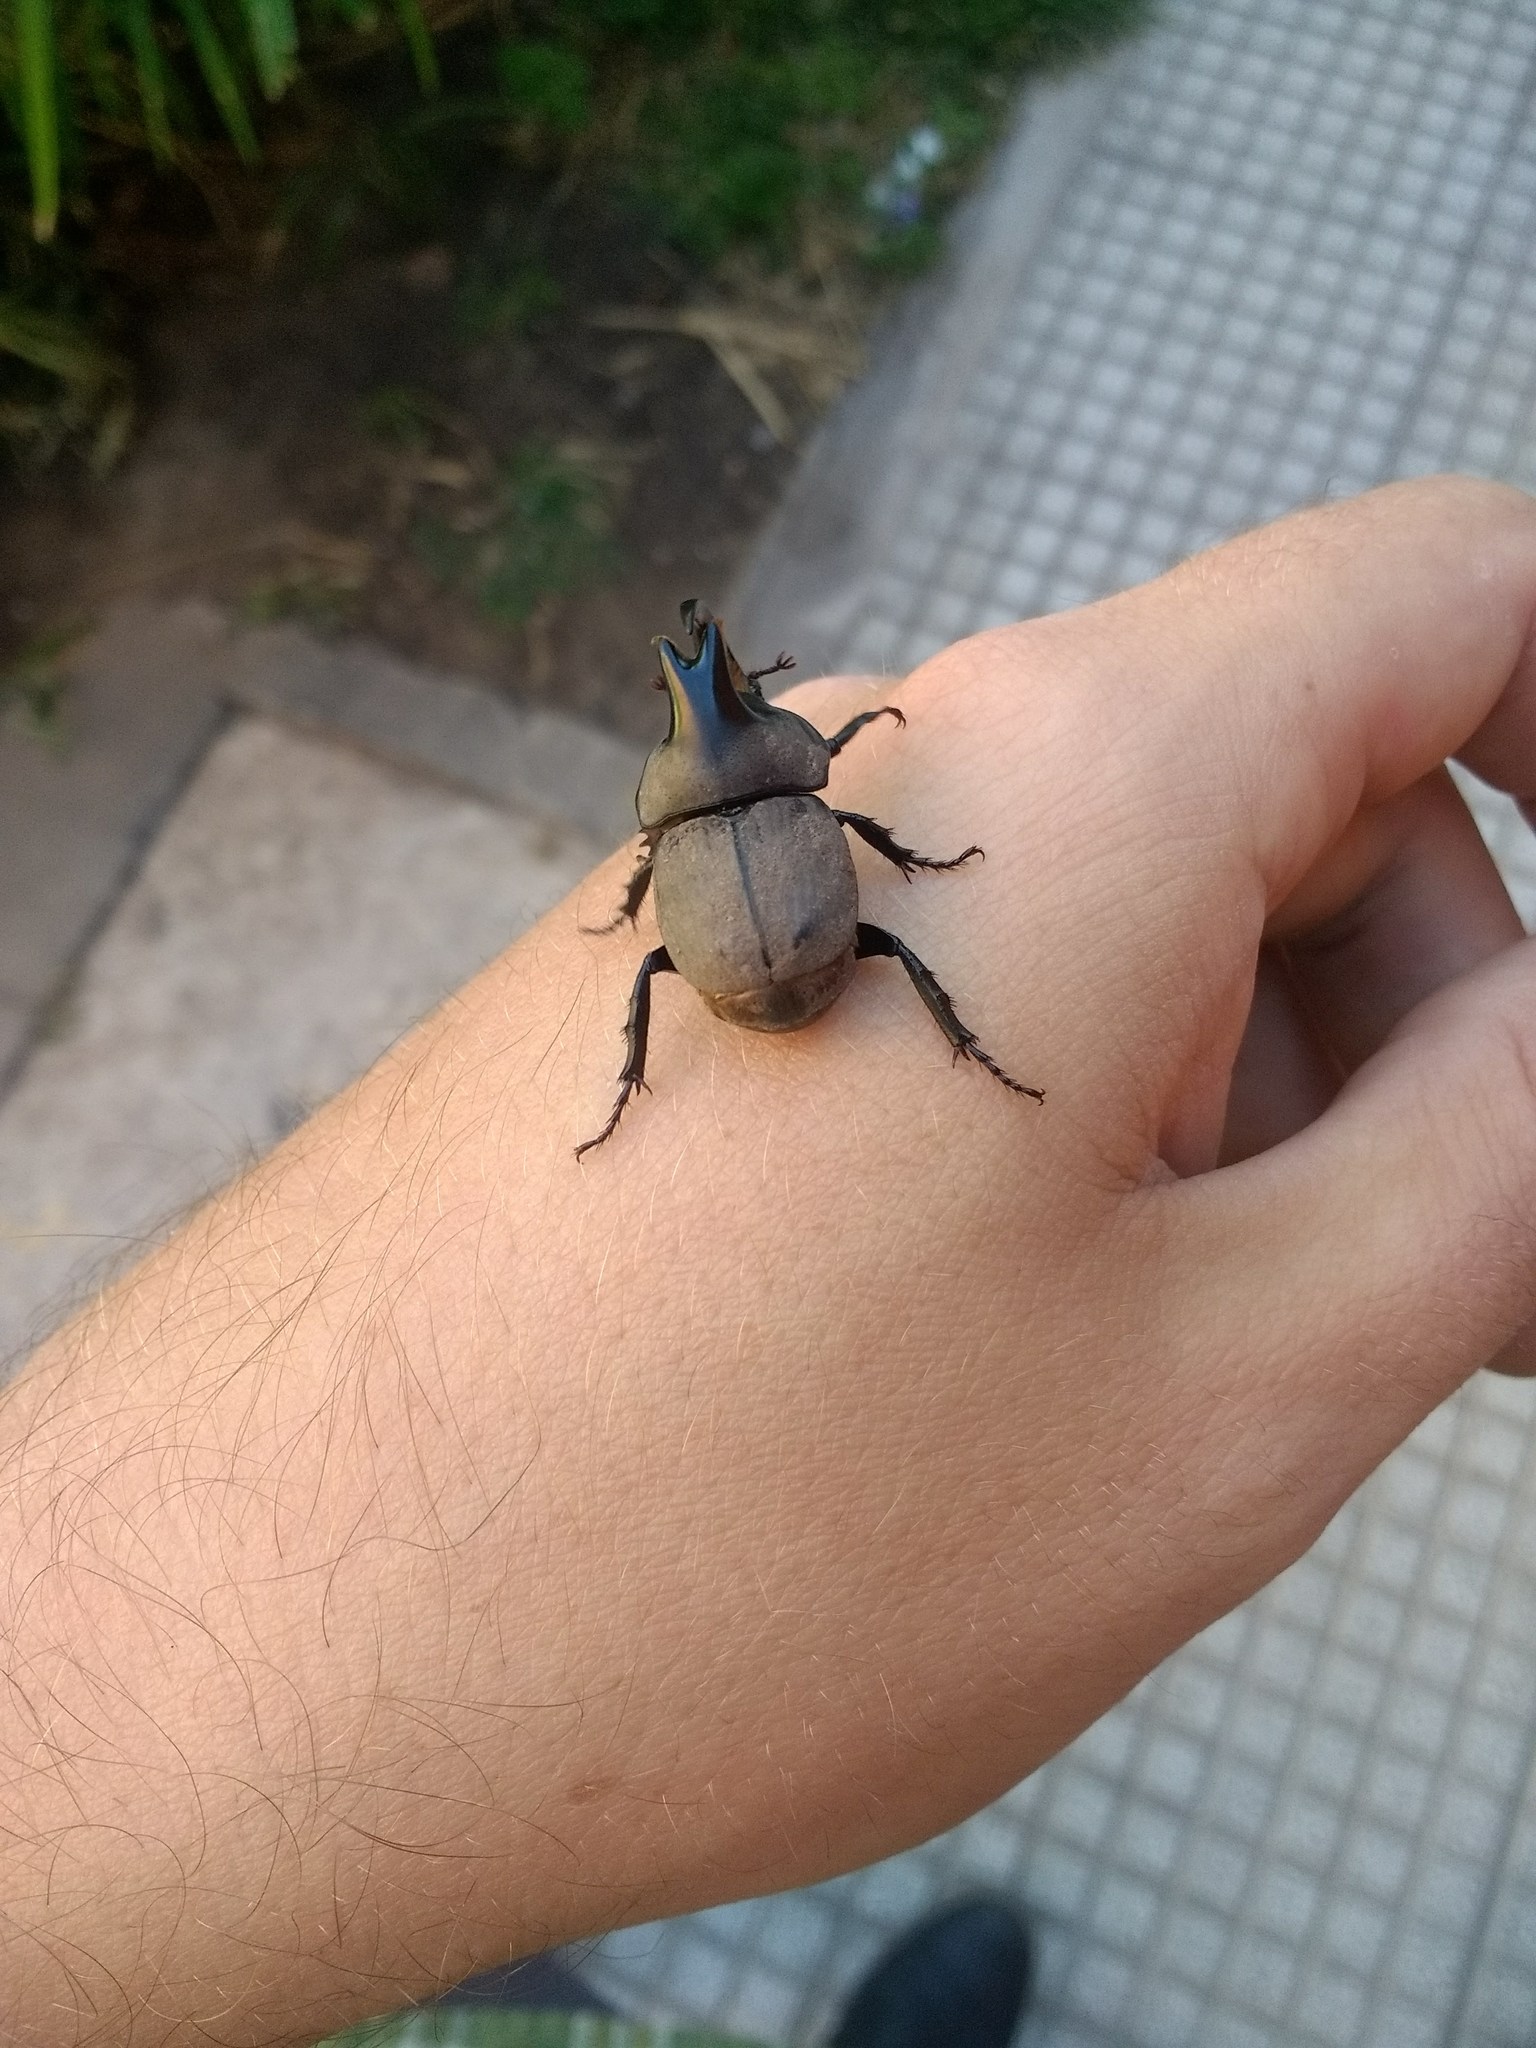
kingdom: Animalia
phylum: Arthropoda
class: Insecta
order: Coleoptera
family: Scarabaeidae
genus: Diloboderus
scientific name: Diloboderus abderus
